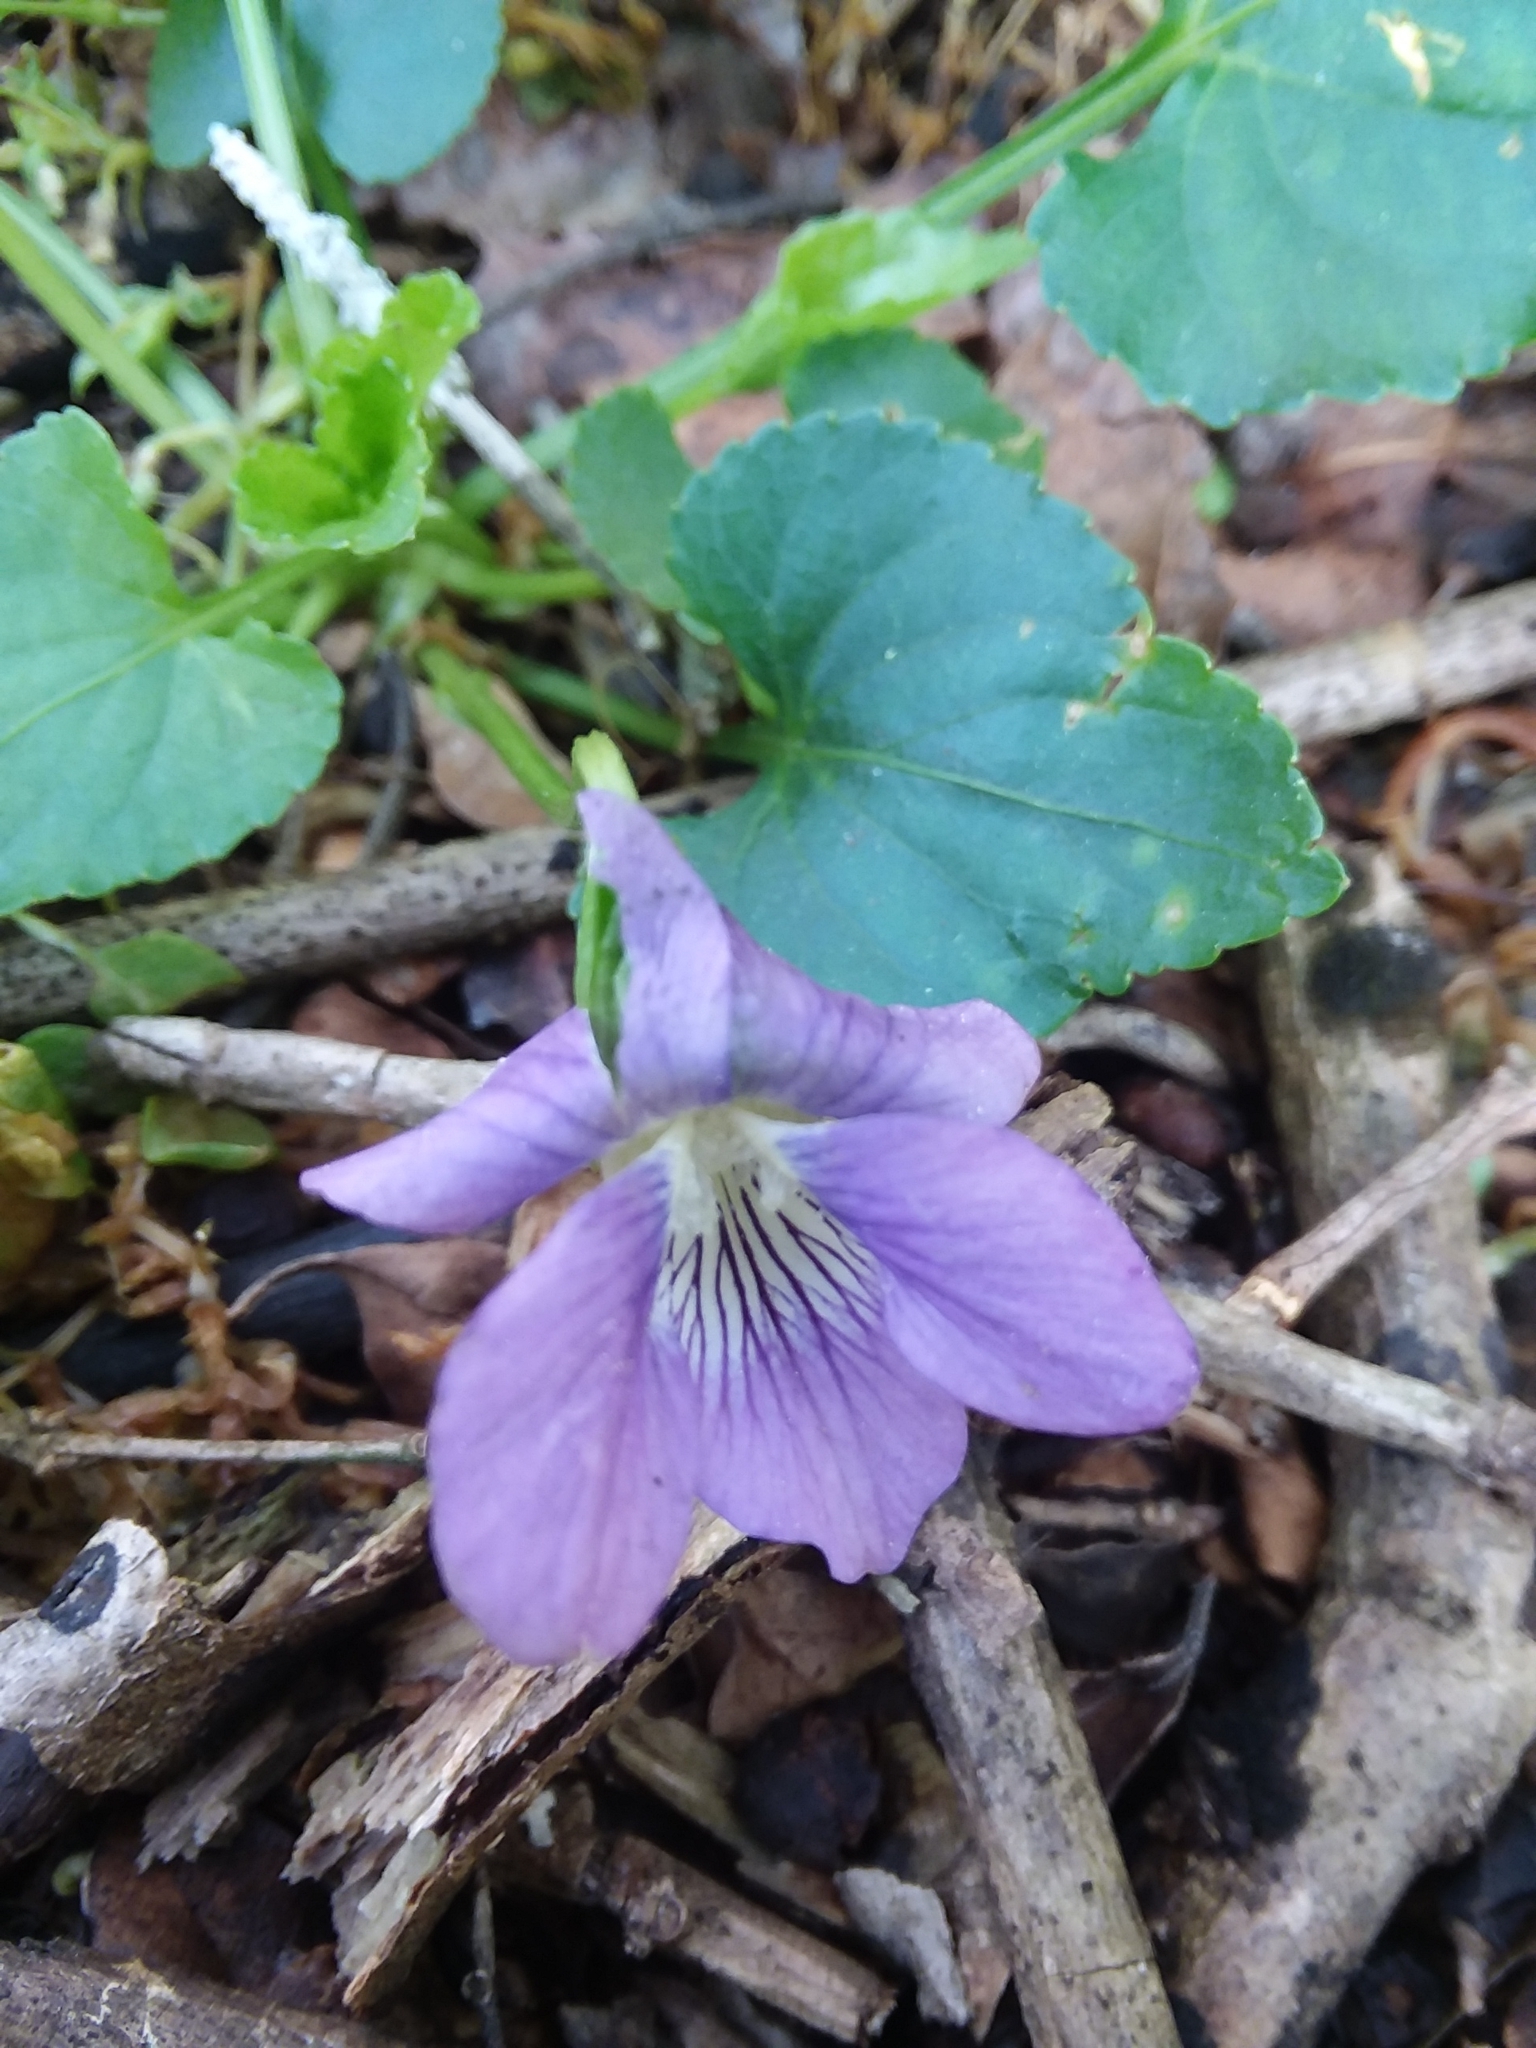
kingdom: Plantae
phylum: Tracheophyta
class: Magnoliopsida
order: Malpighiales
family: Violaceae
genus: Viola
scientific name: Viola sororia
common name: Dooryard violet
